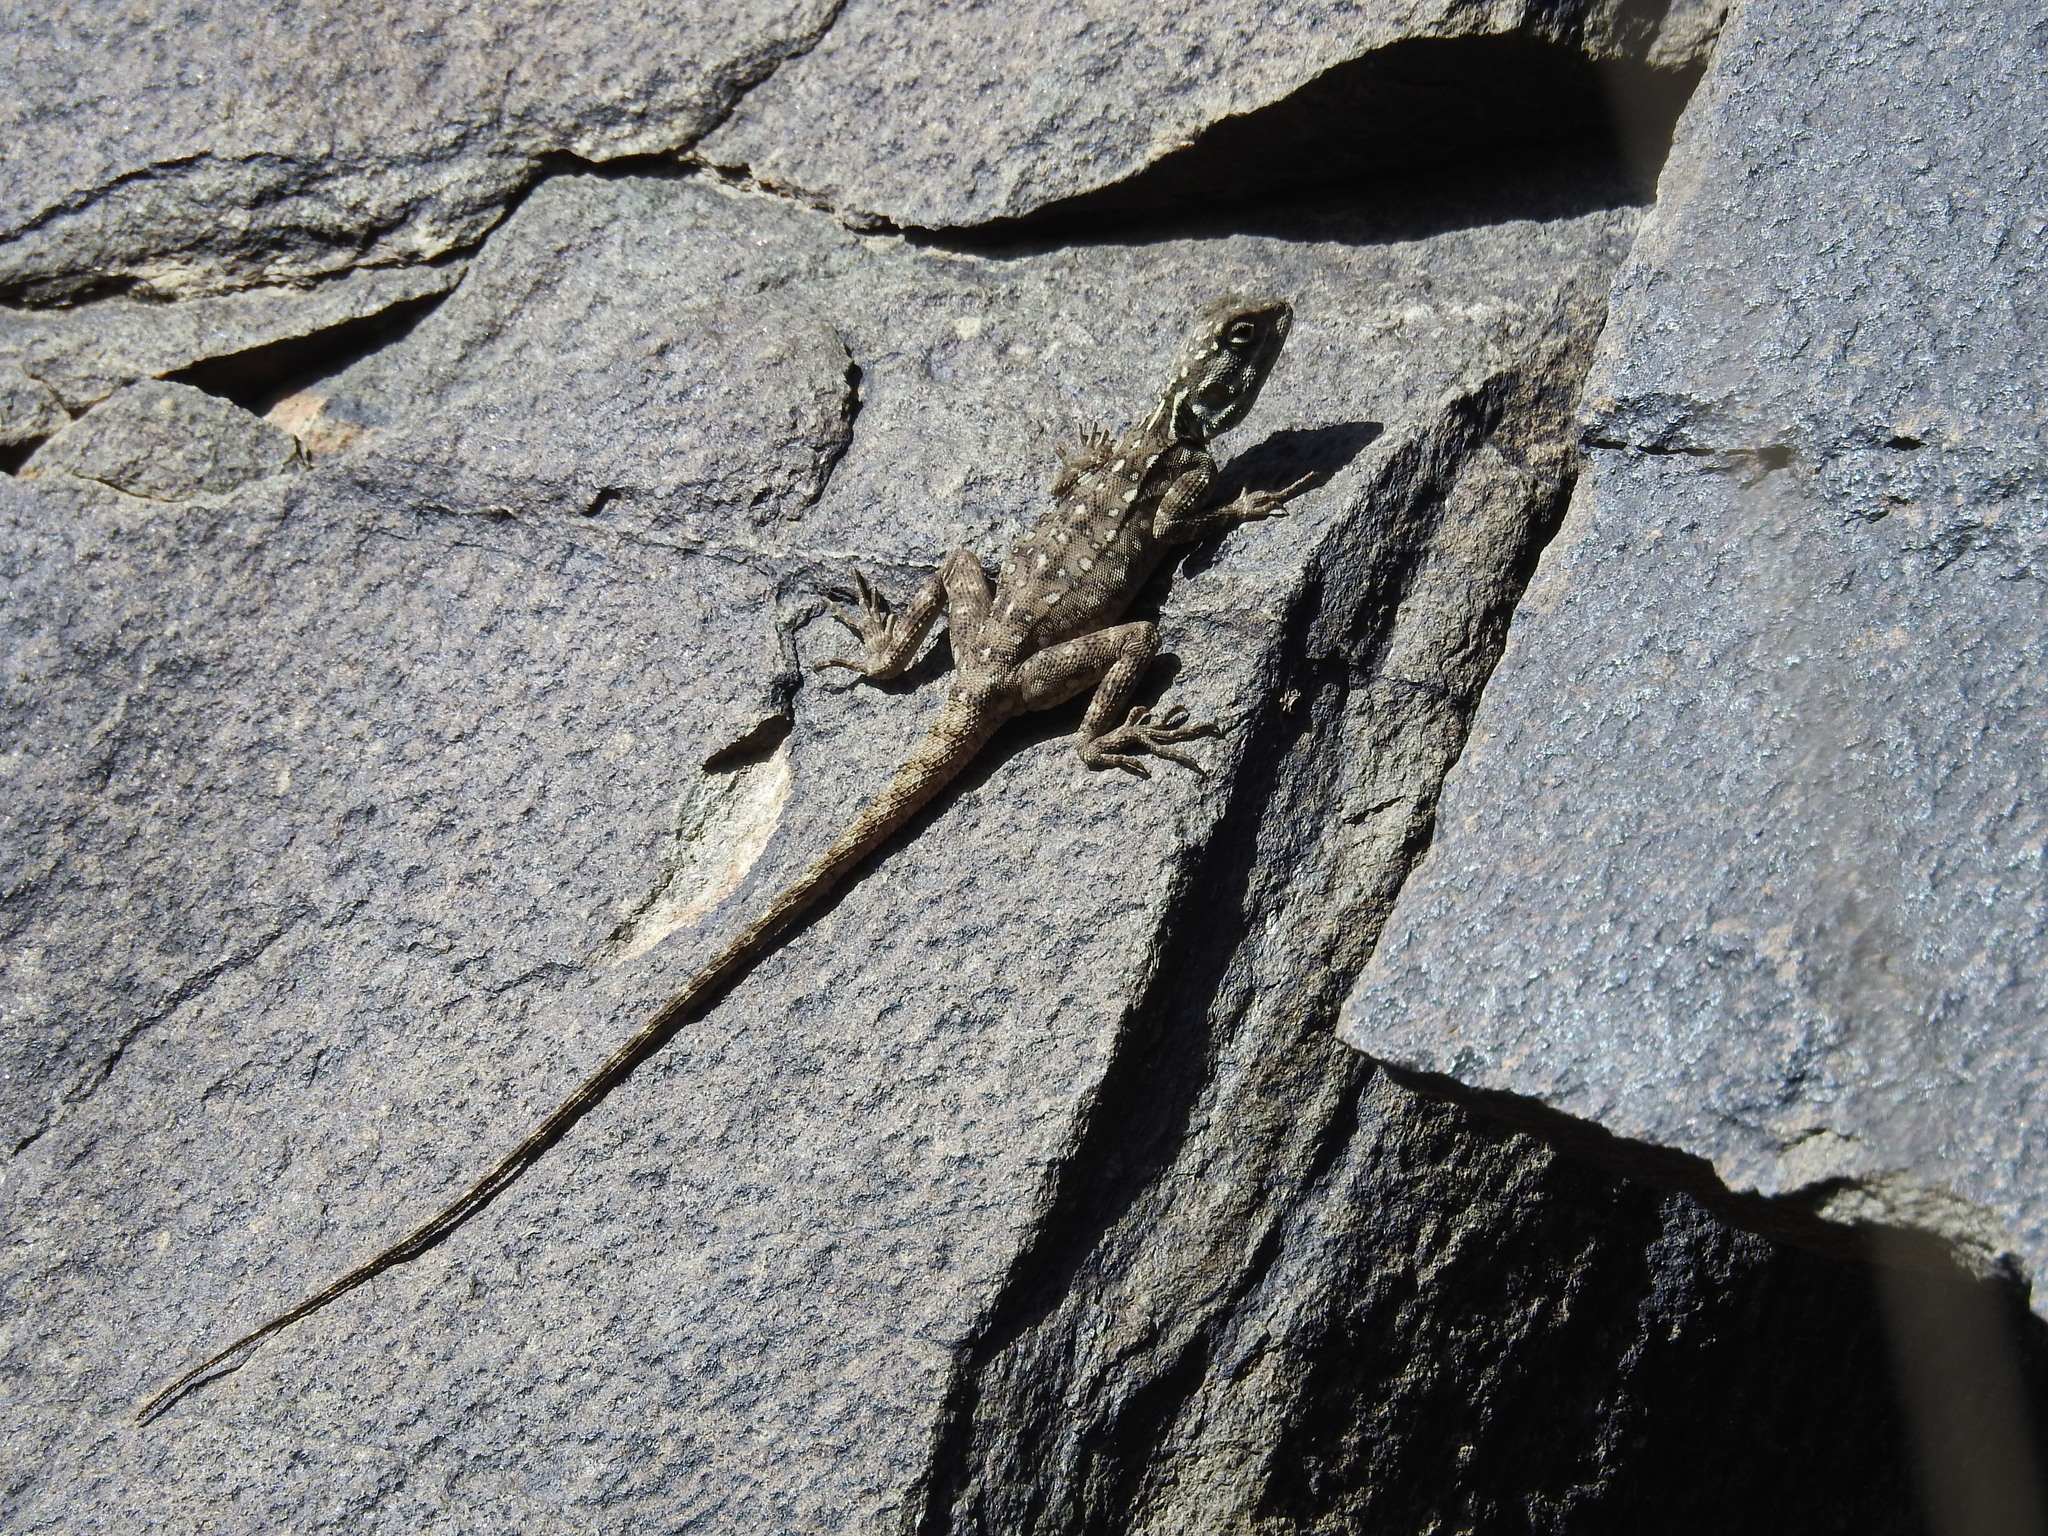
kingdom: Animalia
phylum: Chordata
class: Squamata
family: Agamidae
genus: Acanthocercus
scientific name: Acanthocercus adramitanus
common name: Anderson's rock agama
